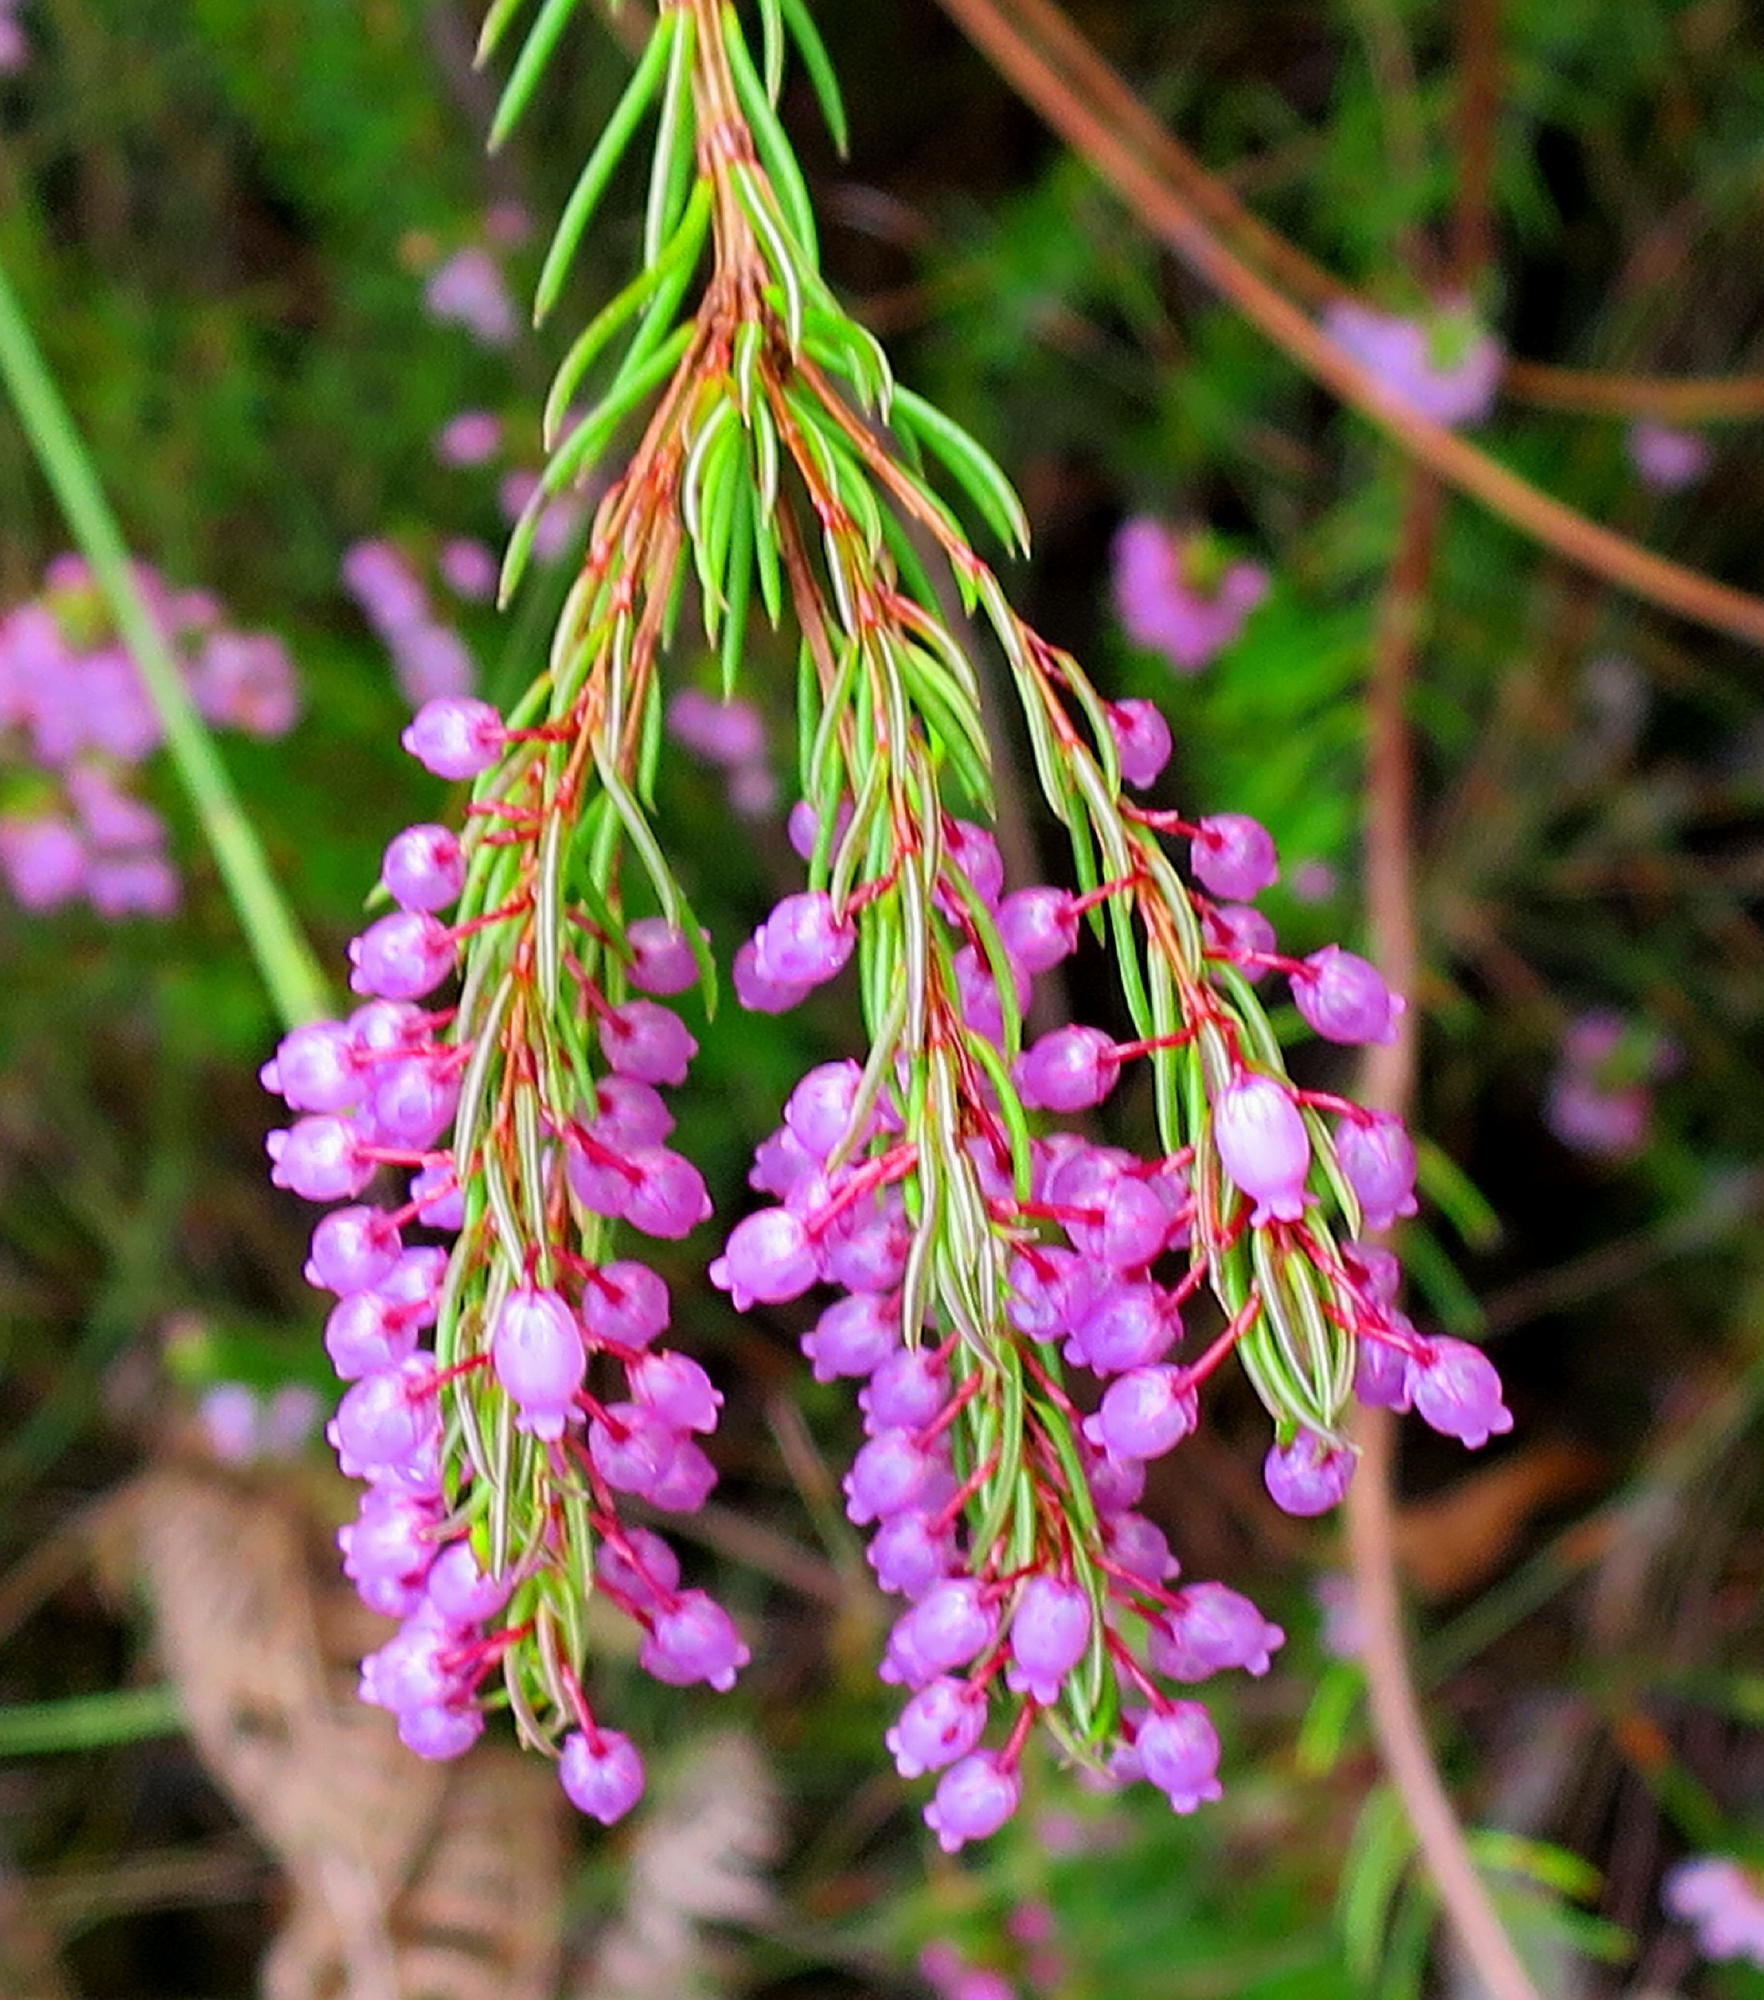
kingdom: Plantae
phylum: Tracheophyta
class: Magnoliopsida
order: Ericales
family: Ericaceae
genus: Erica
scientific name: Erica regerminans
